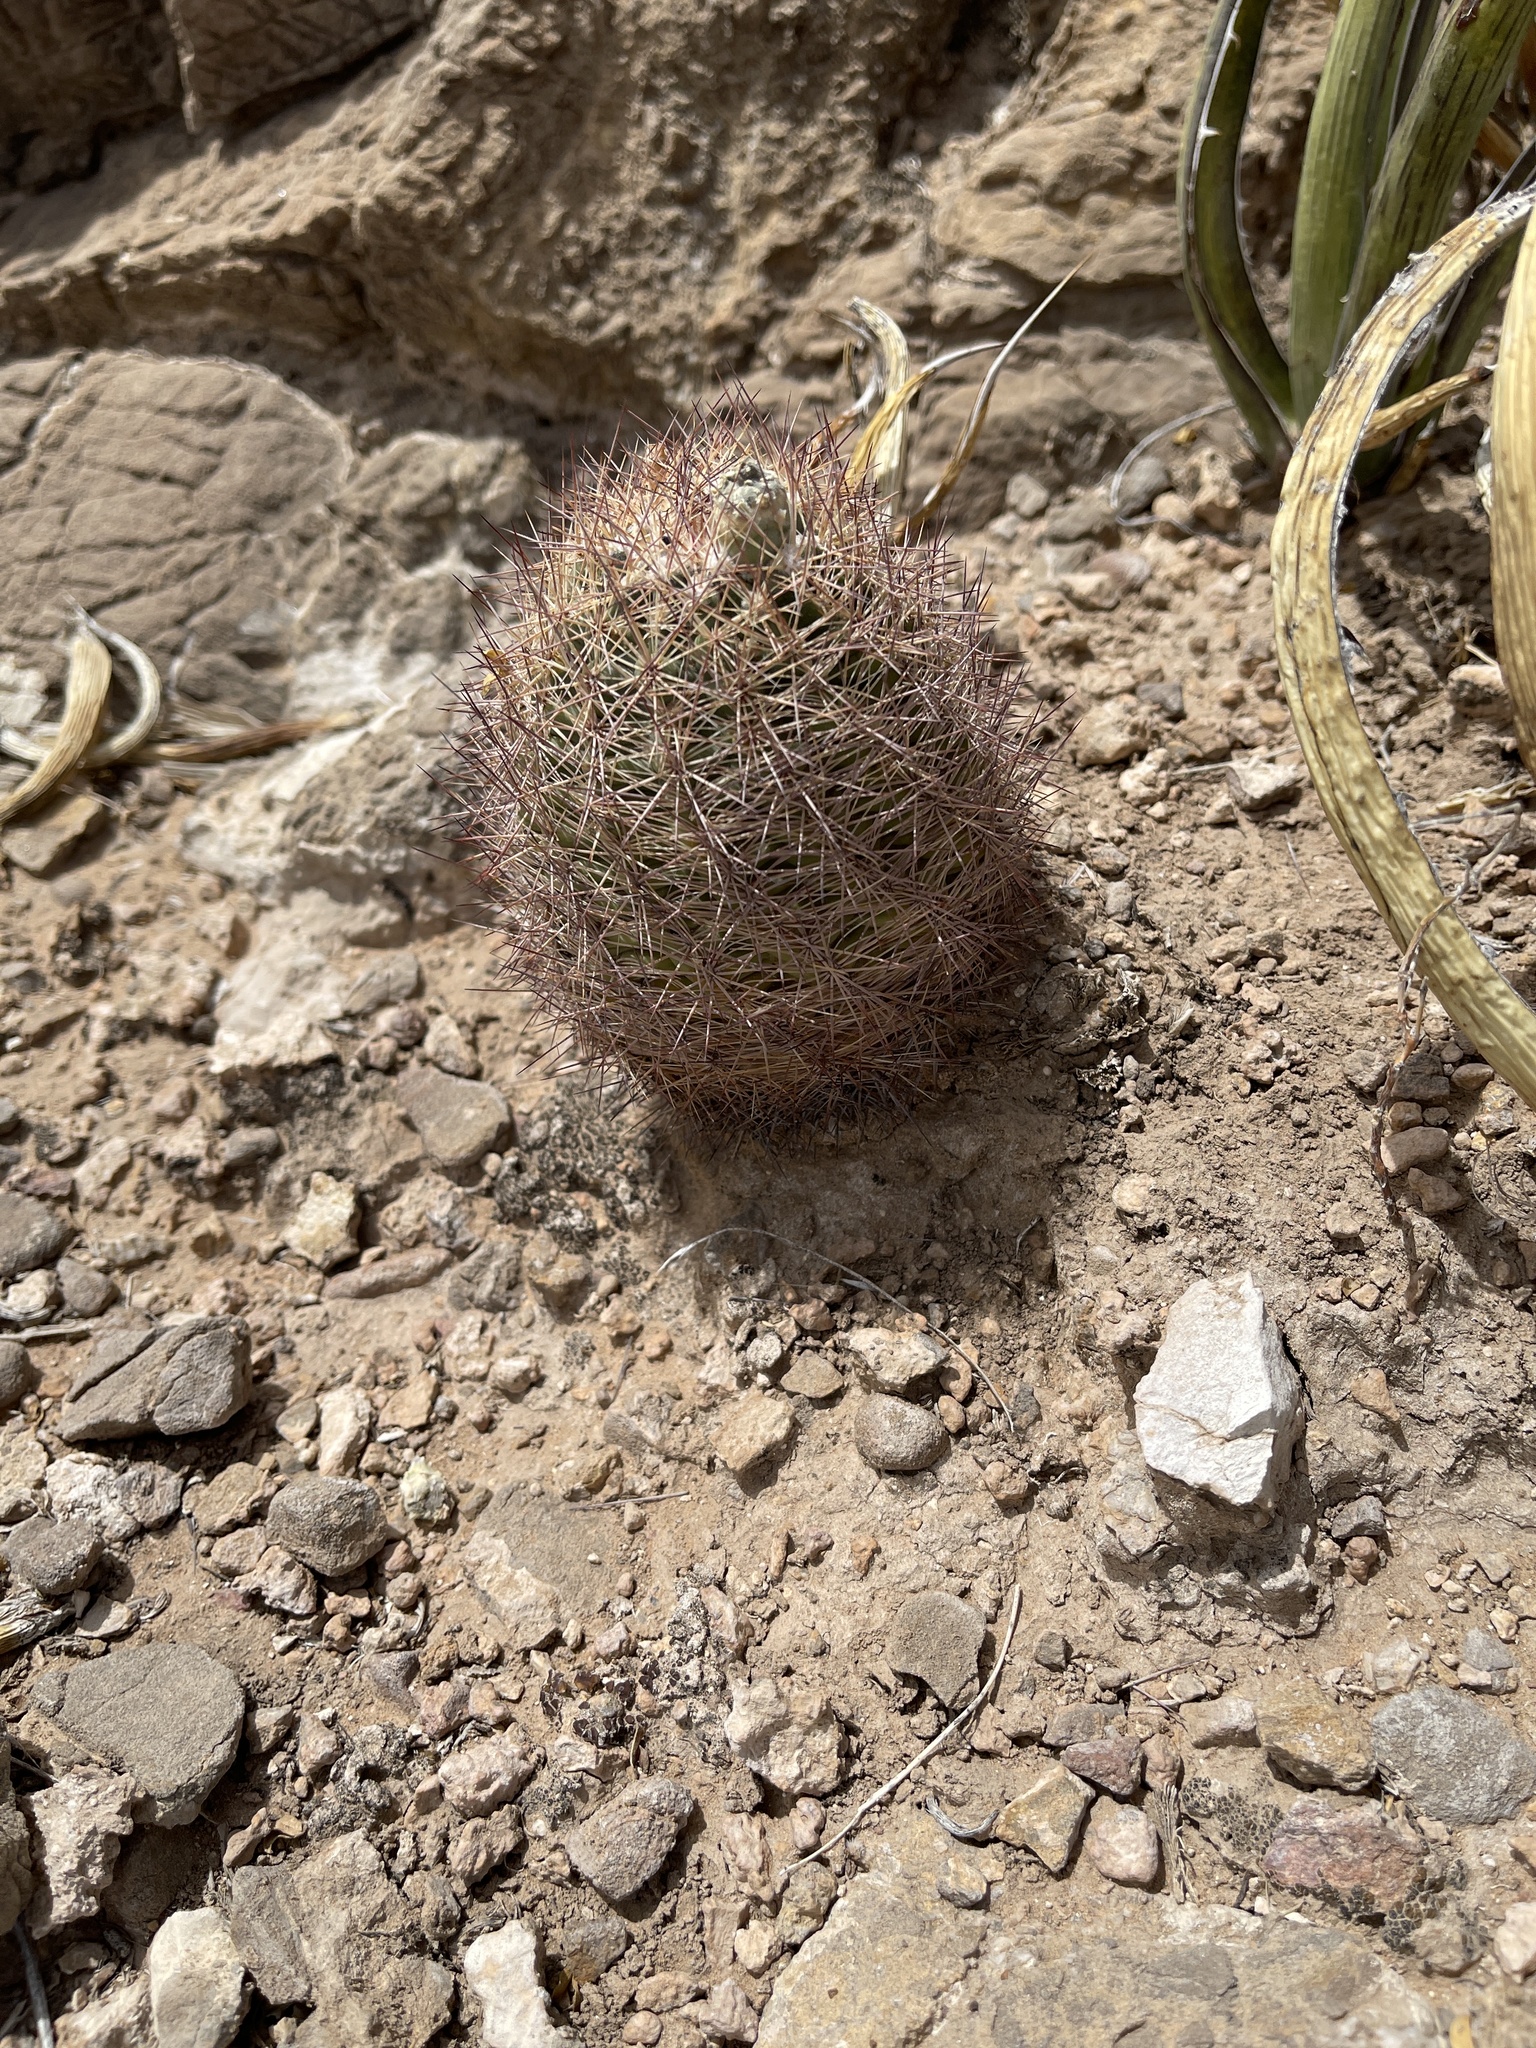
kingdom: Plantae
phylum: Tracheophyta
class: Magnoliopsida
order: Caryophyllales
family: Cactaceae
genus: Sclerocactus
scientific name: Sclerocactus intertextus
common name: White fish-hook cactus
